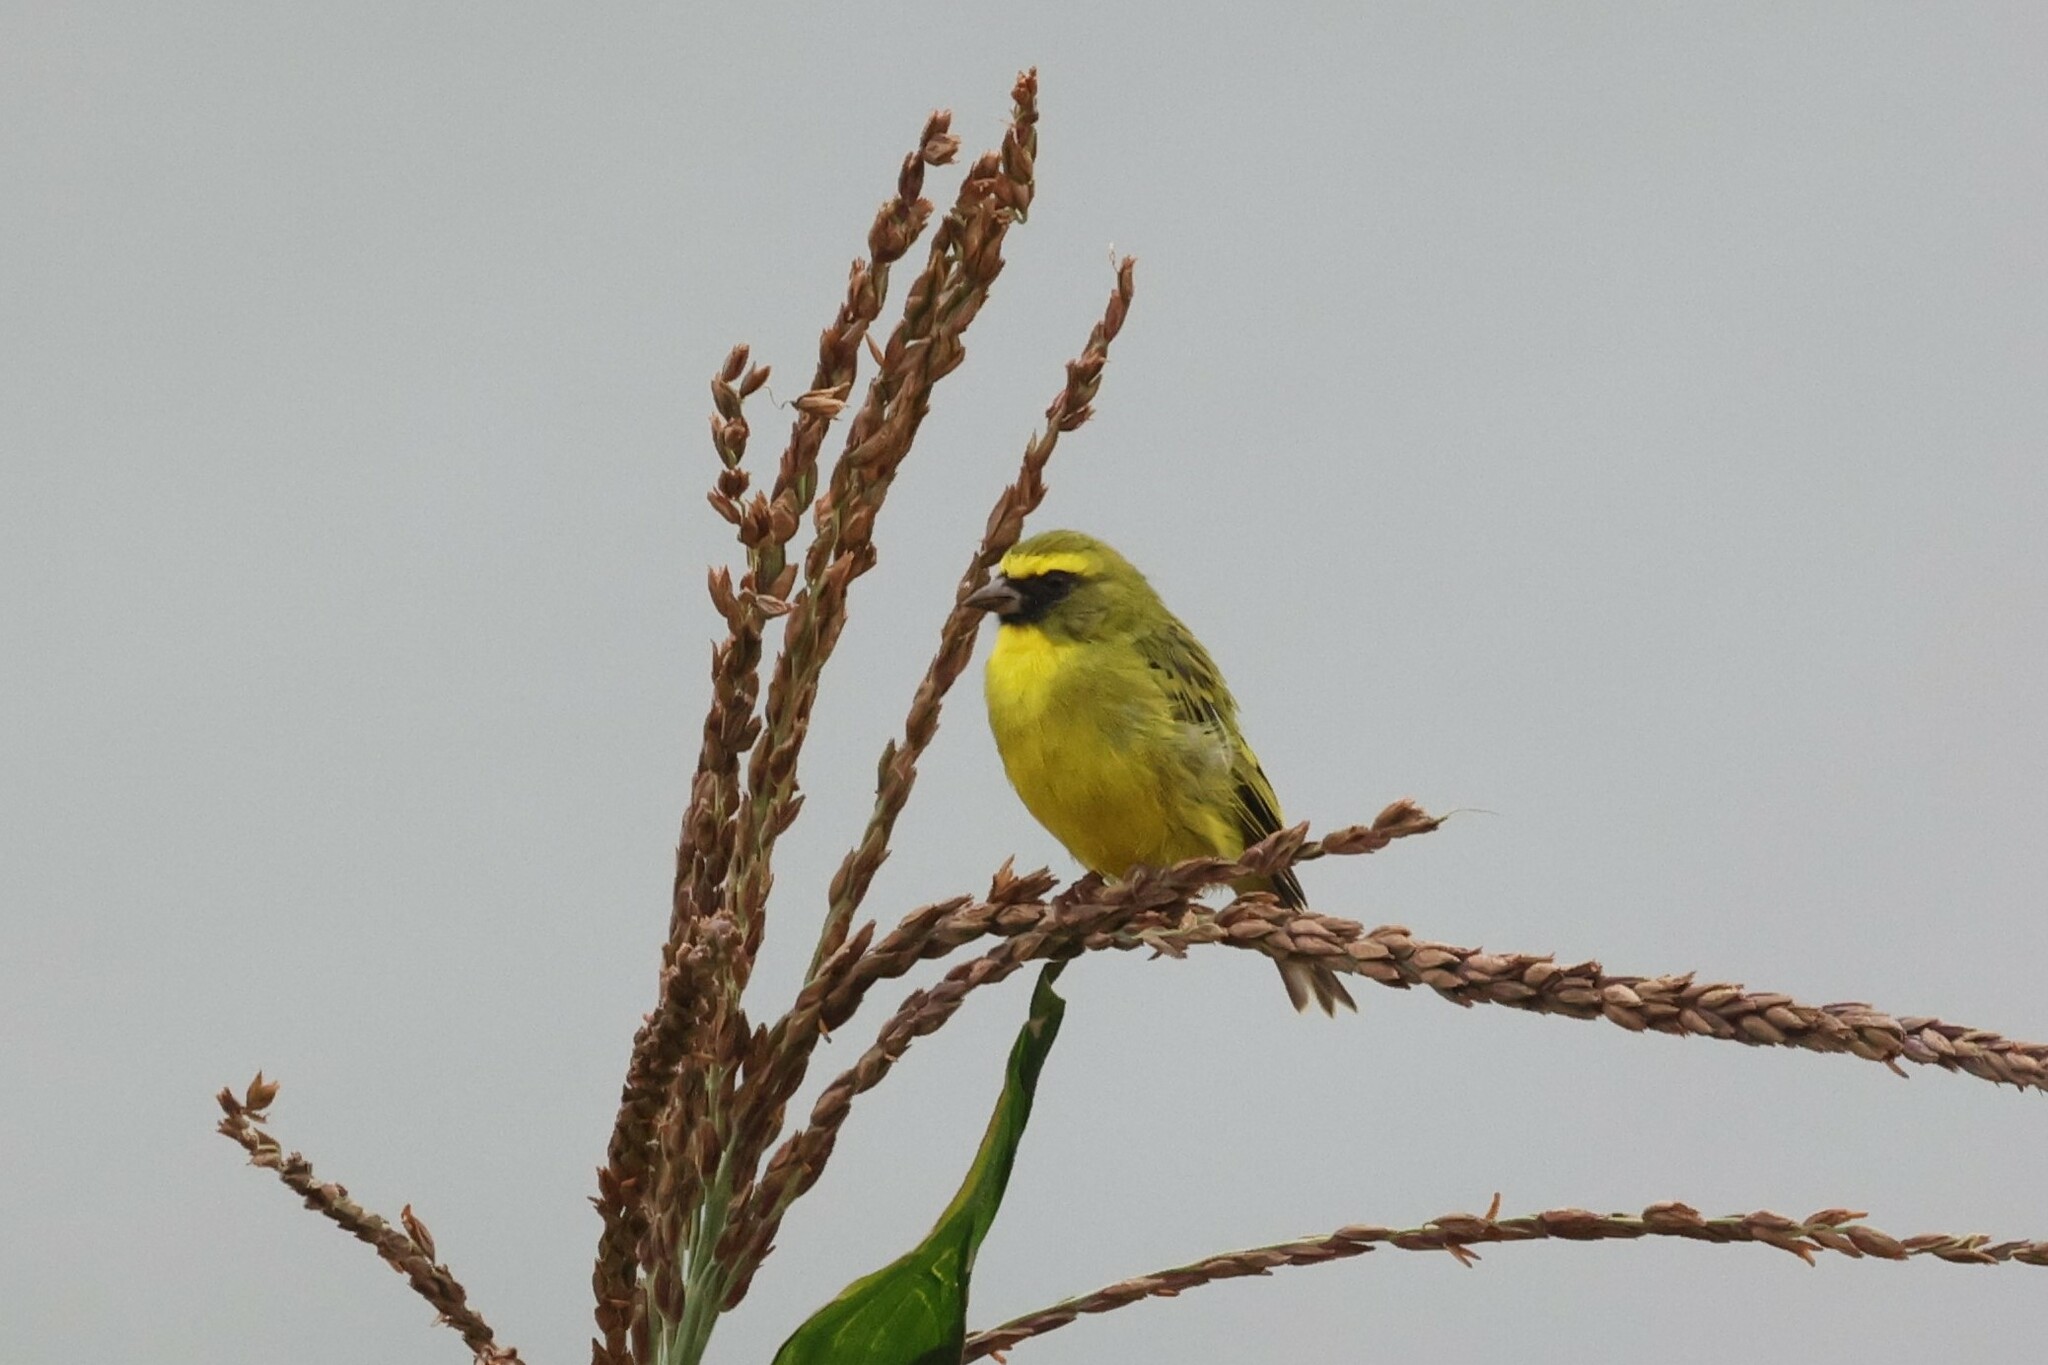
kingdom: Animalia
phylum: Chordata
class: Aves
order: Passeriformes
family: Fringillidae
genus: Crithagra
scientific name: Crithagra frontalis
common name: Western citril
